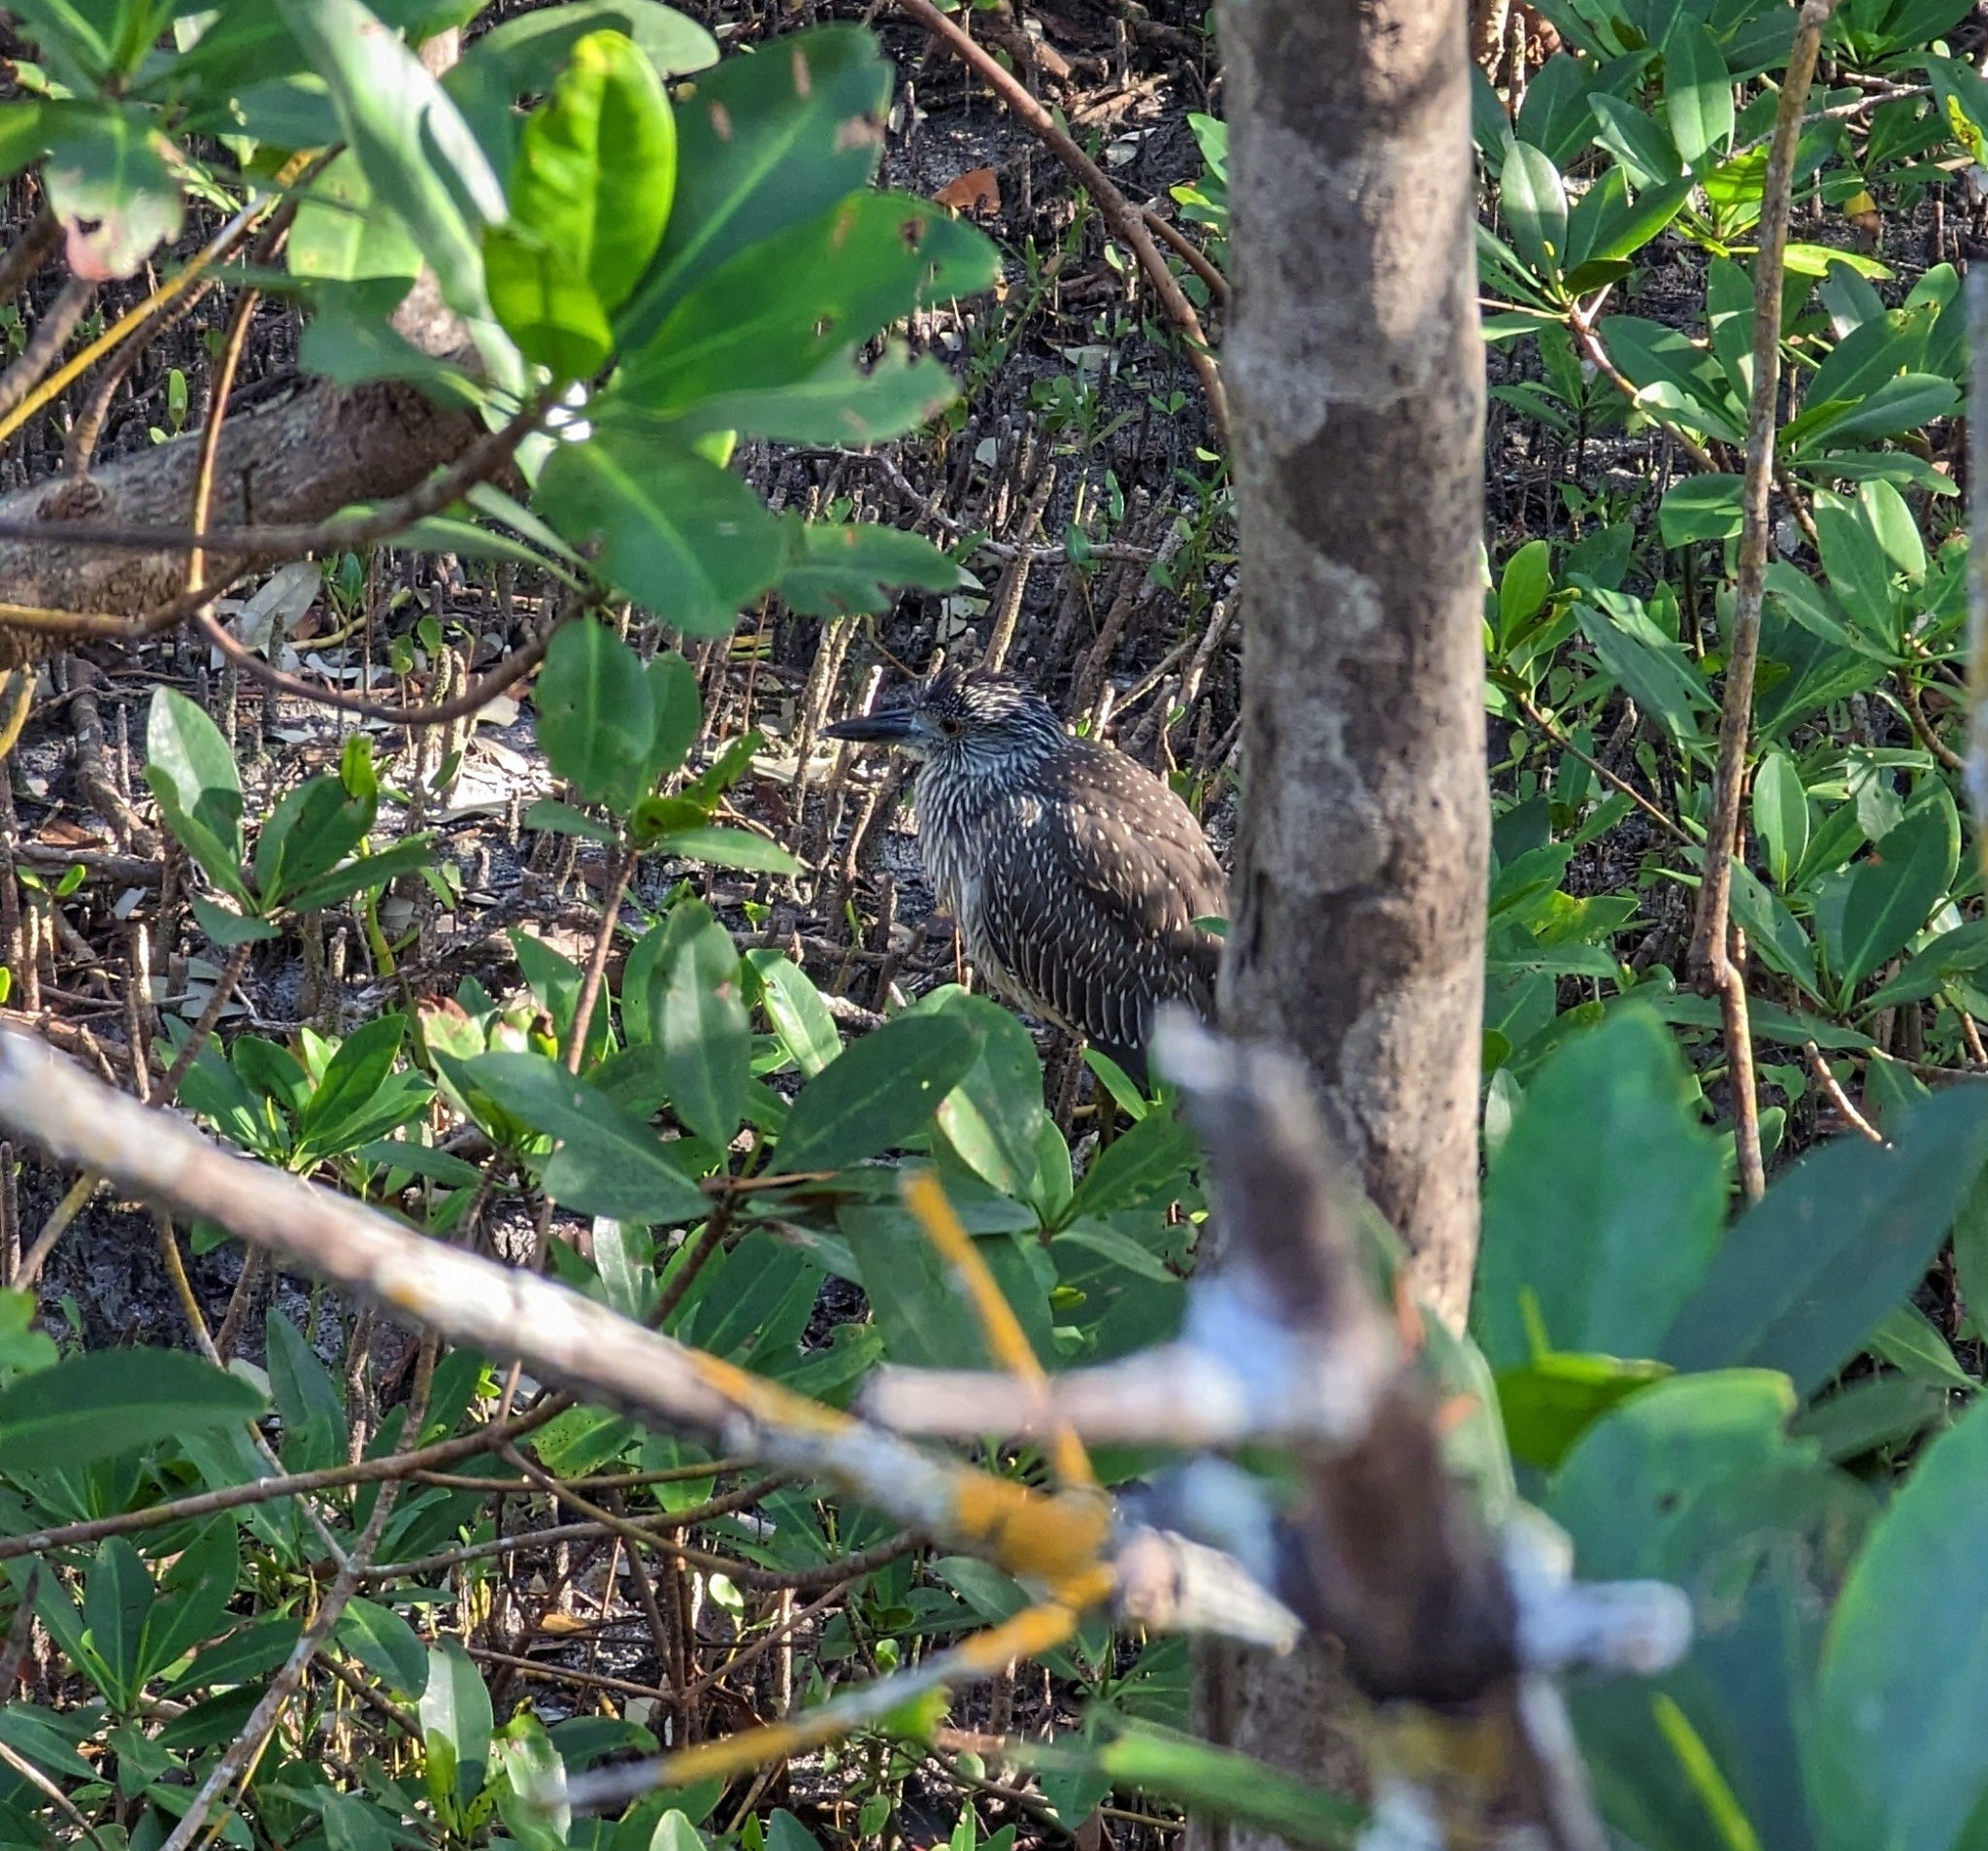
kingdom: Animalia
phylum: Chordata
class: Aves
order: Pelecaniformes
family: Ardeidae
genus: Nyctanassa
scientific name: Nyctanassa violacea
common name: Yellow-crowned night heron
